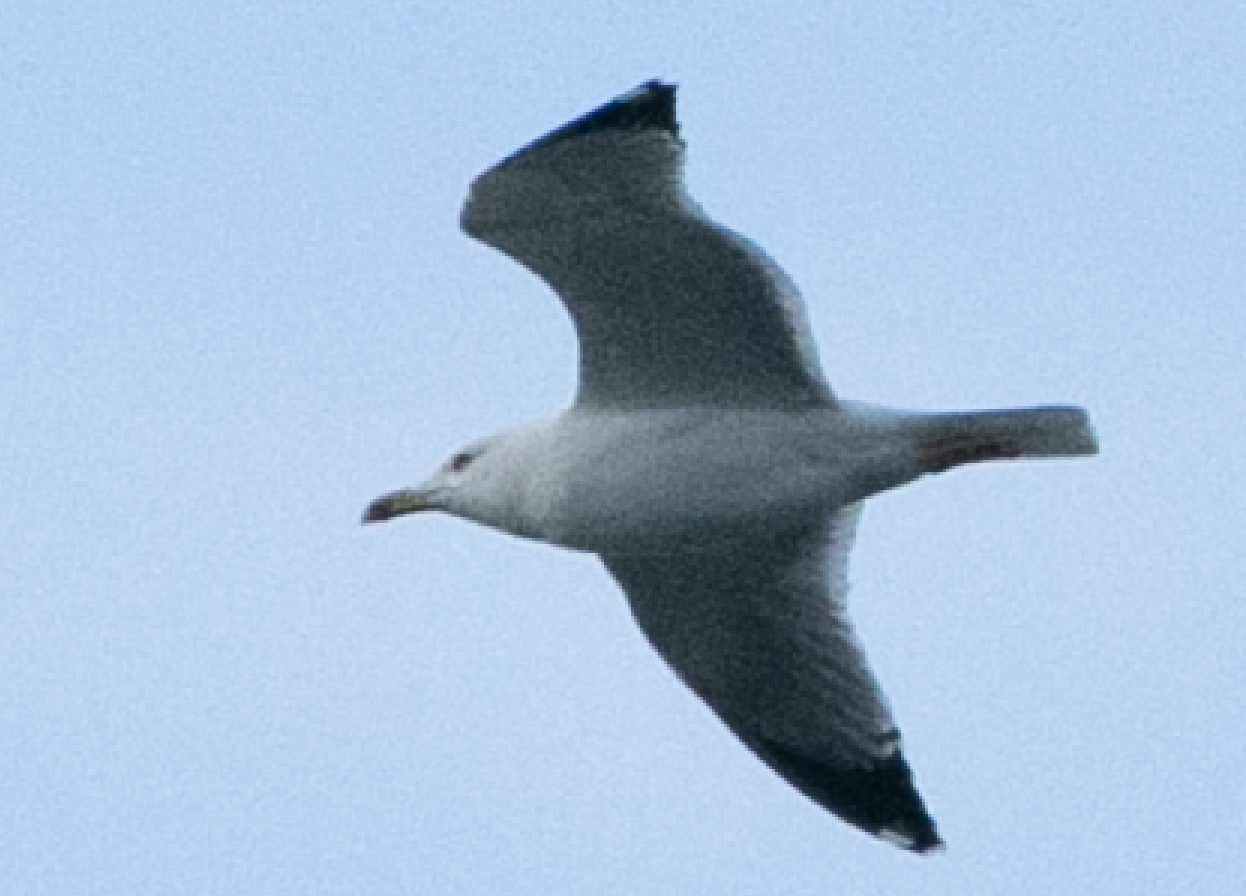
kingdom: Animalia
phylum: Chordata
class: Aves
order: Charadriiformes
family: Laridae
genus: Larus
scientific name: Larus michahellis
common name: Yellow-legged gull
